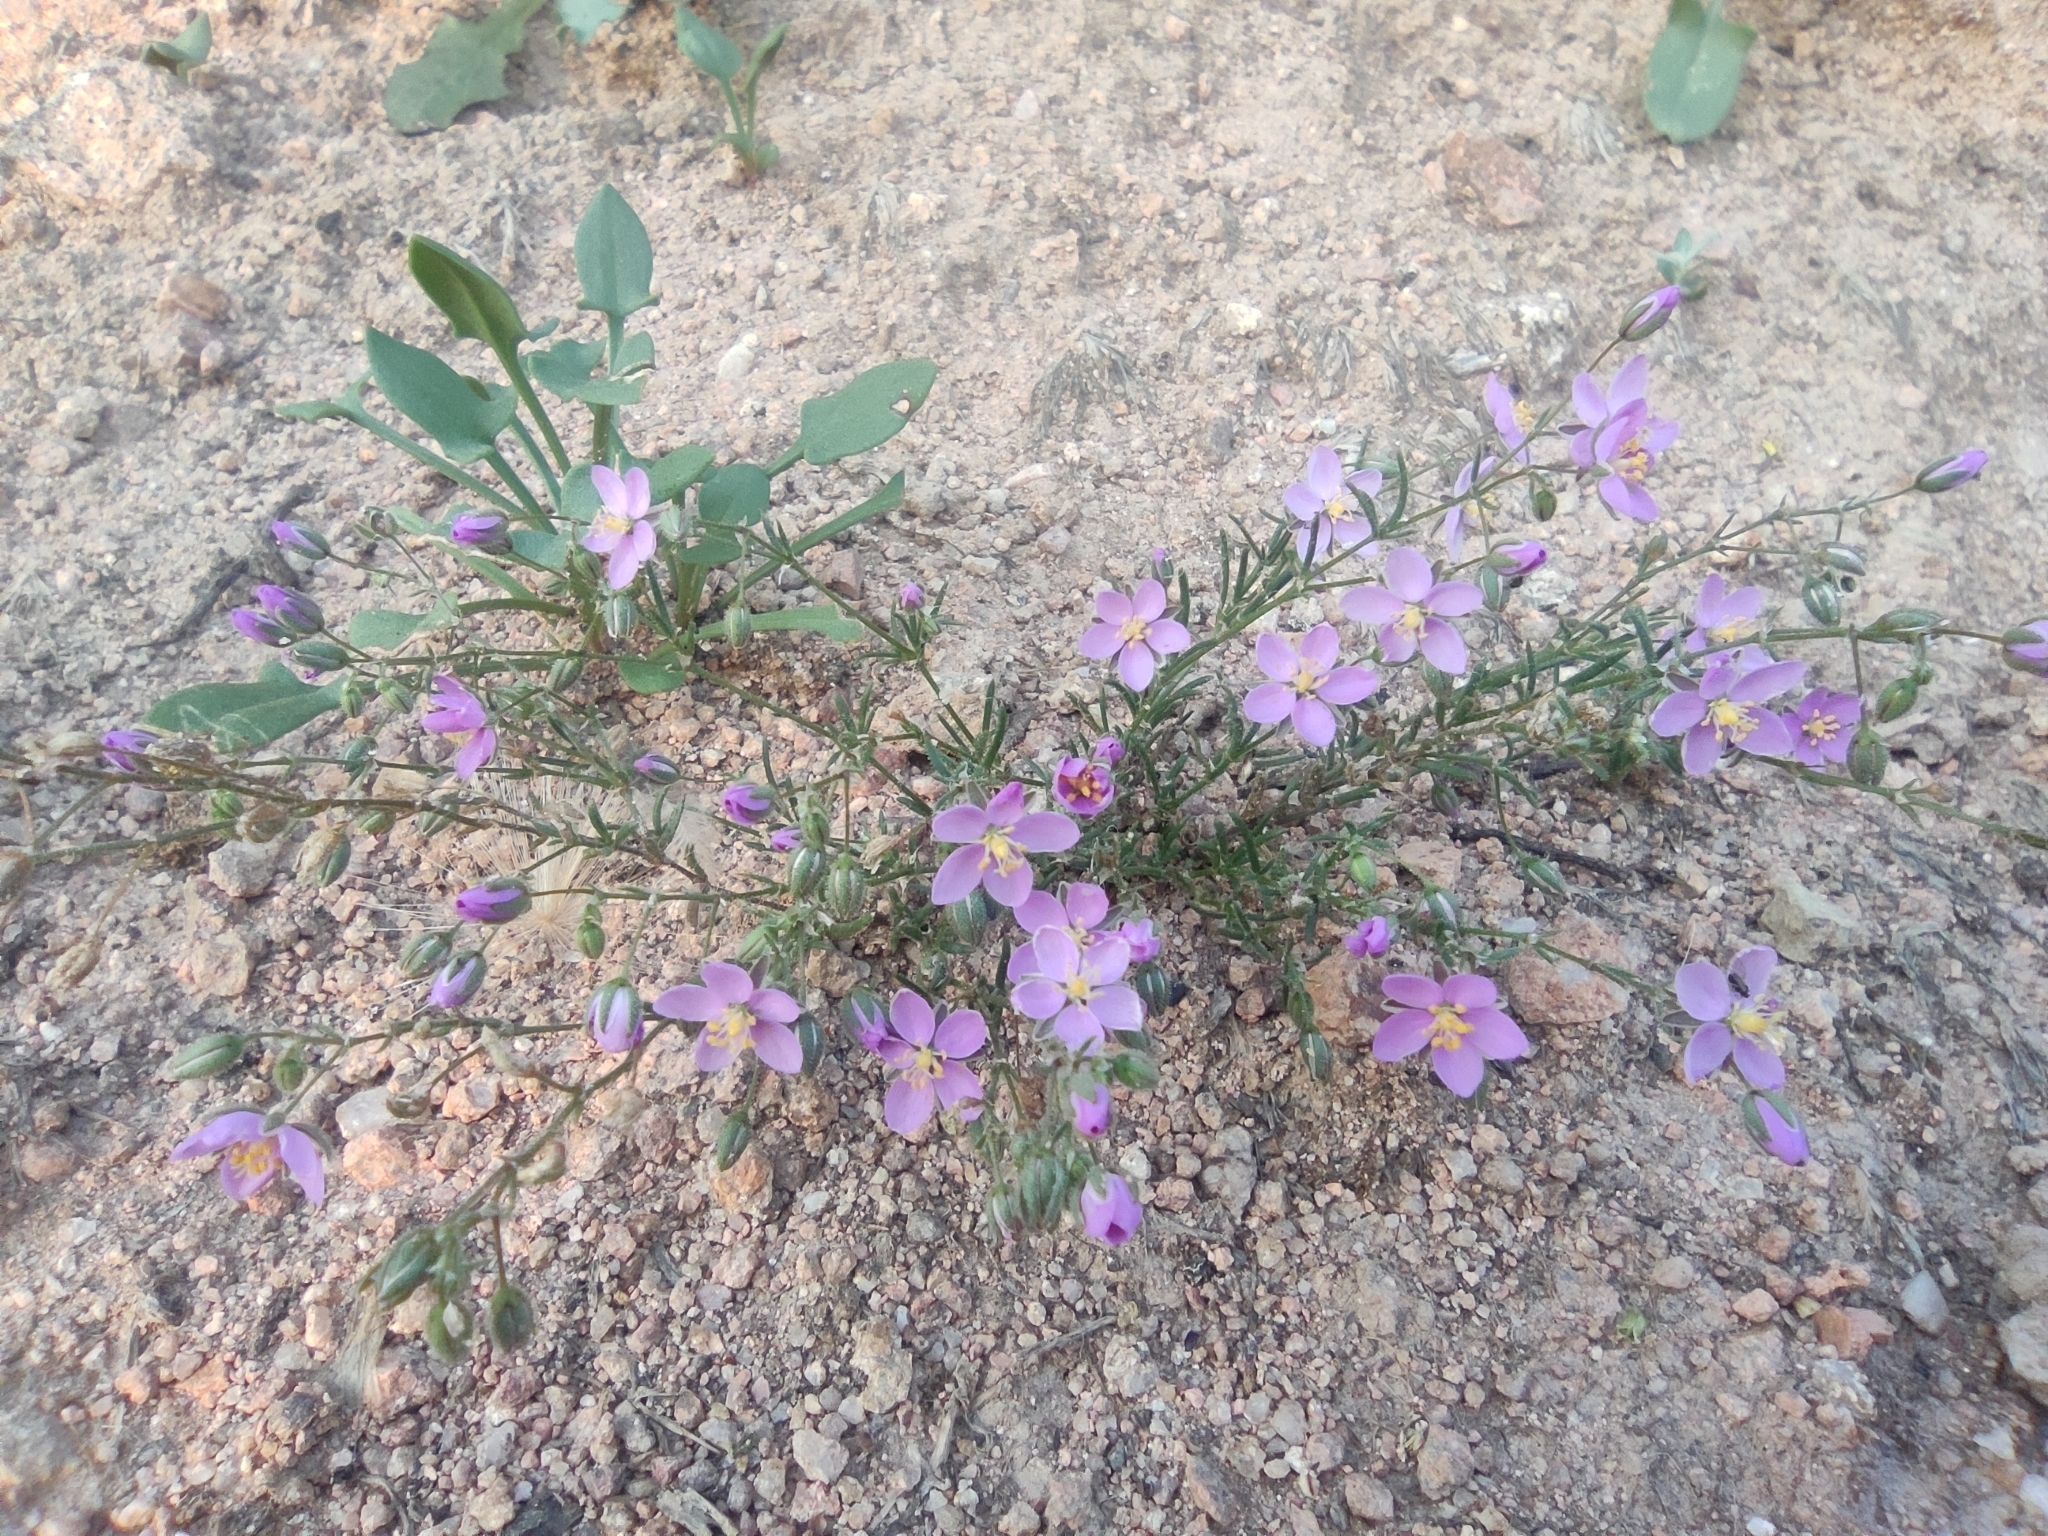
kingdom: Plantae
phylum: Tracheophyta
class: Magnoliopsida
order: Caryophyllales
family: Caryophyllaceae
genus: Spergularia
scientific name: Spergularia purpurea
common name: Purple sandspurry
